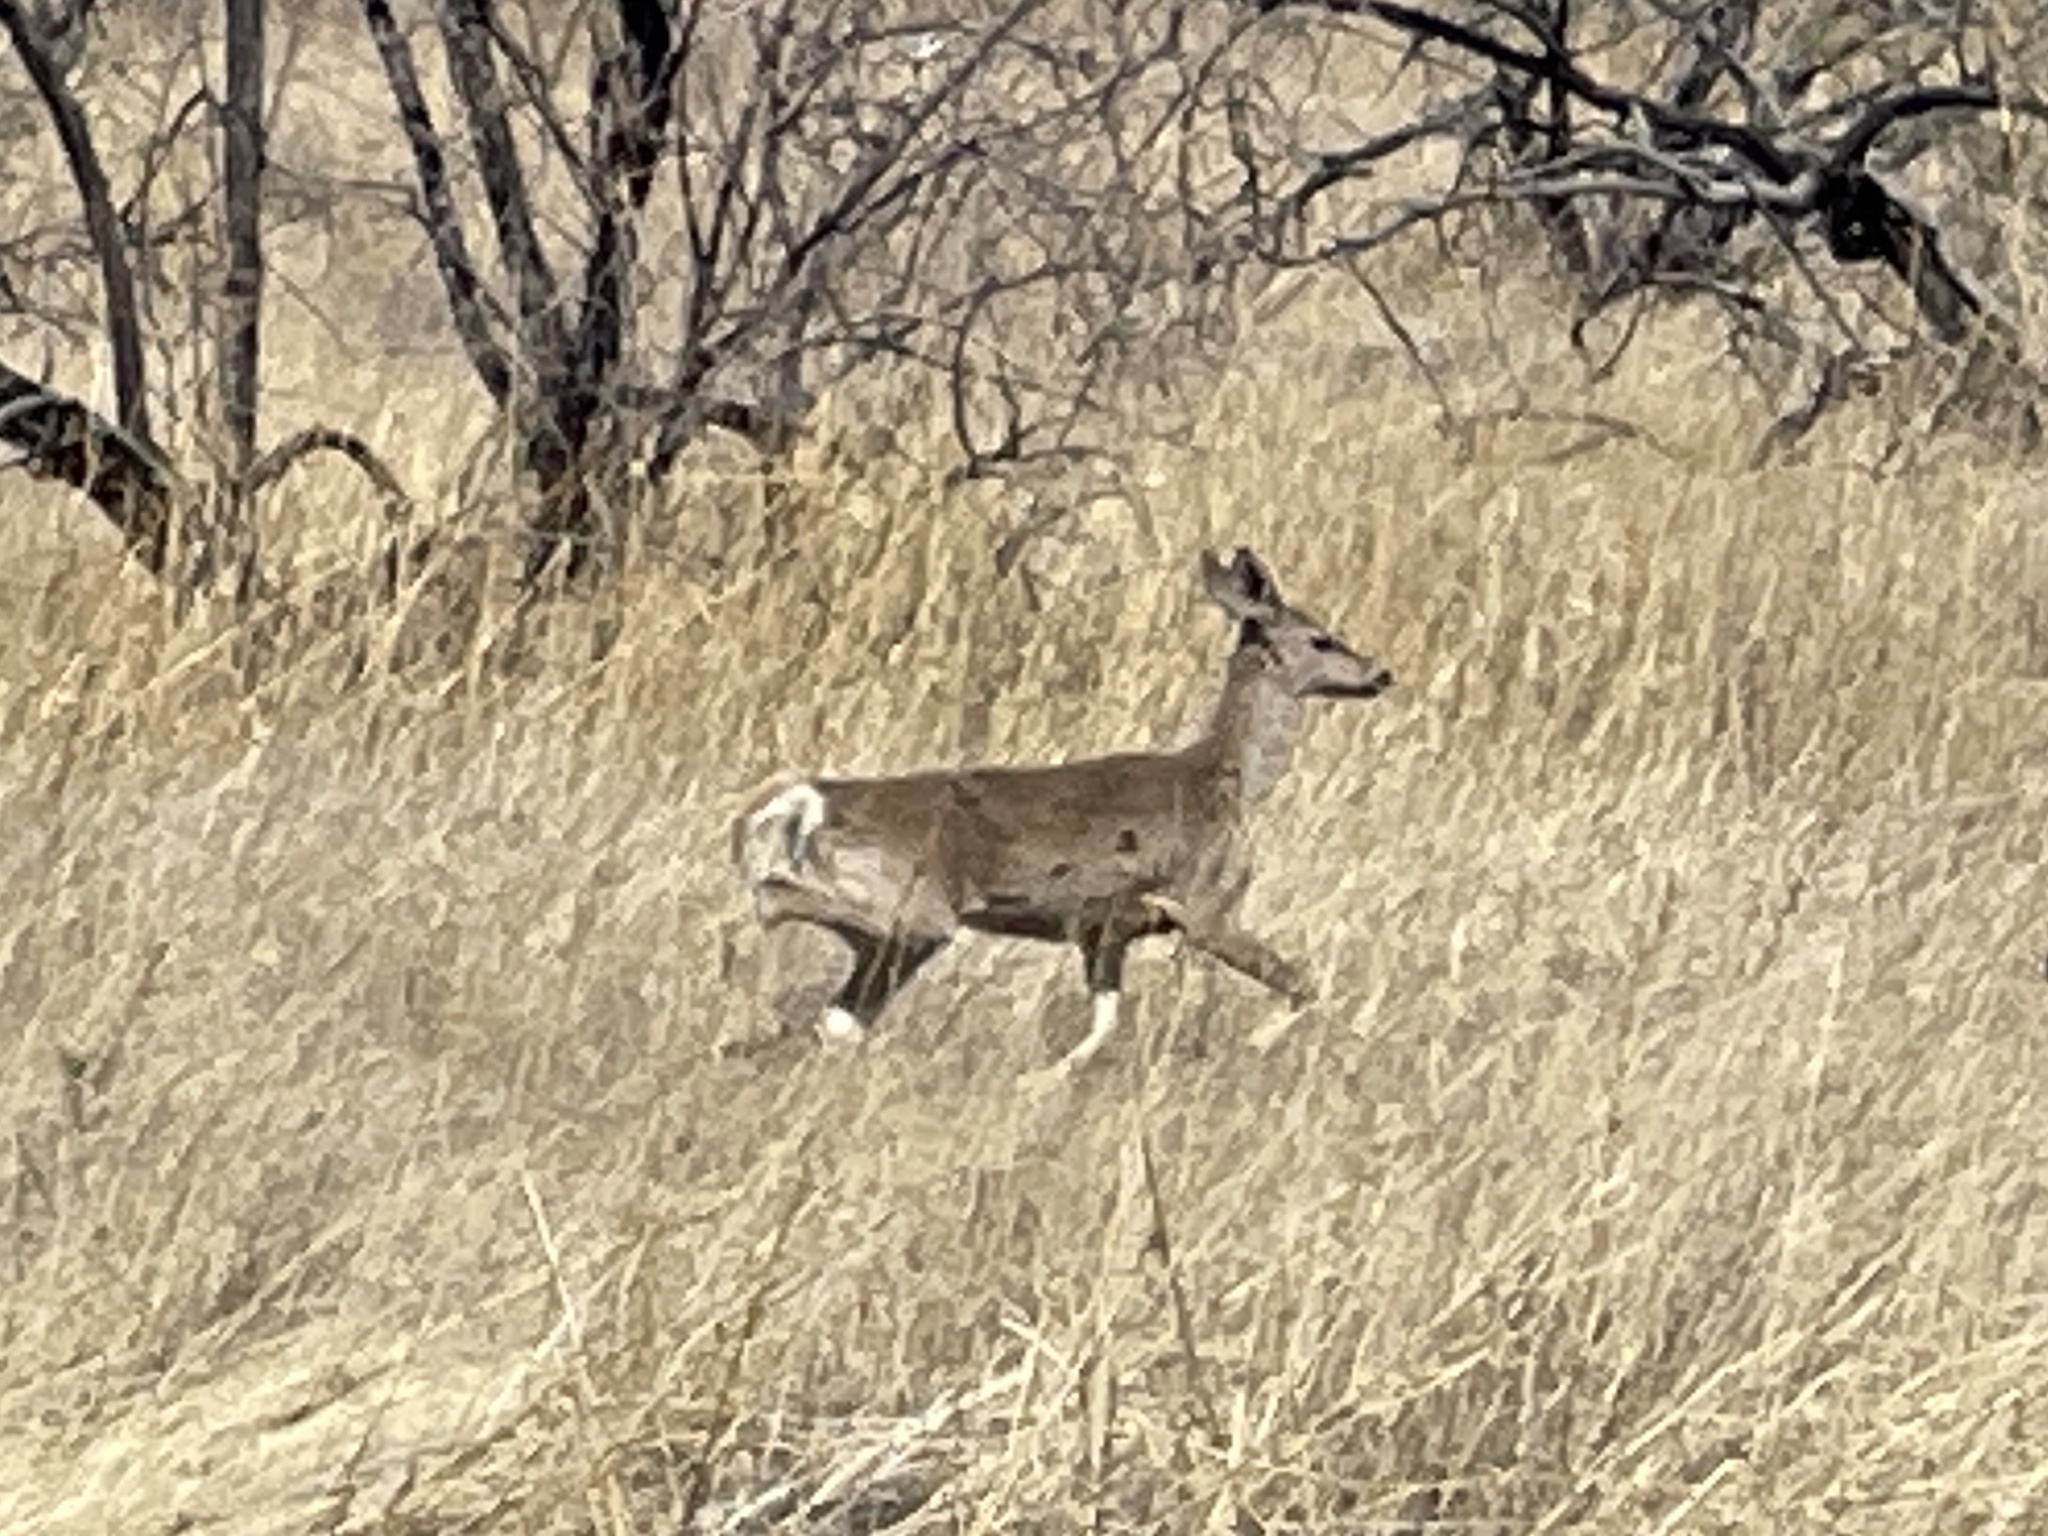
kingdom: Animalia
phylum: Chordata
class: Mammalia
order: Artiodactyla
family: Cervidae
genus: Odocoileus
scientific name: Odocoileus virginianus
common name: White-tailed deer
